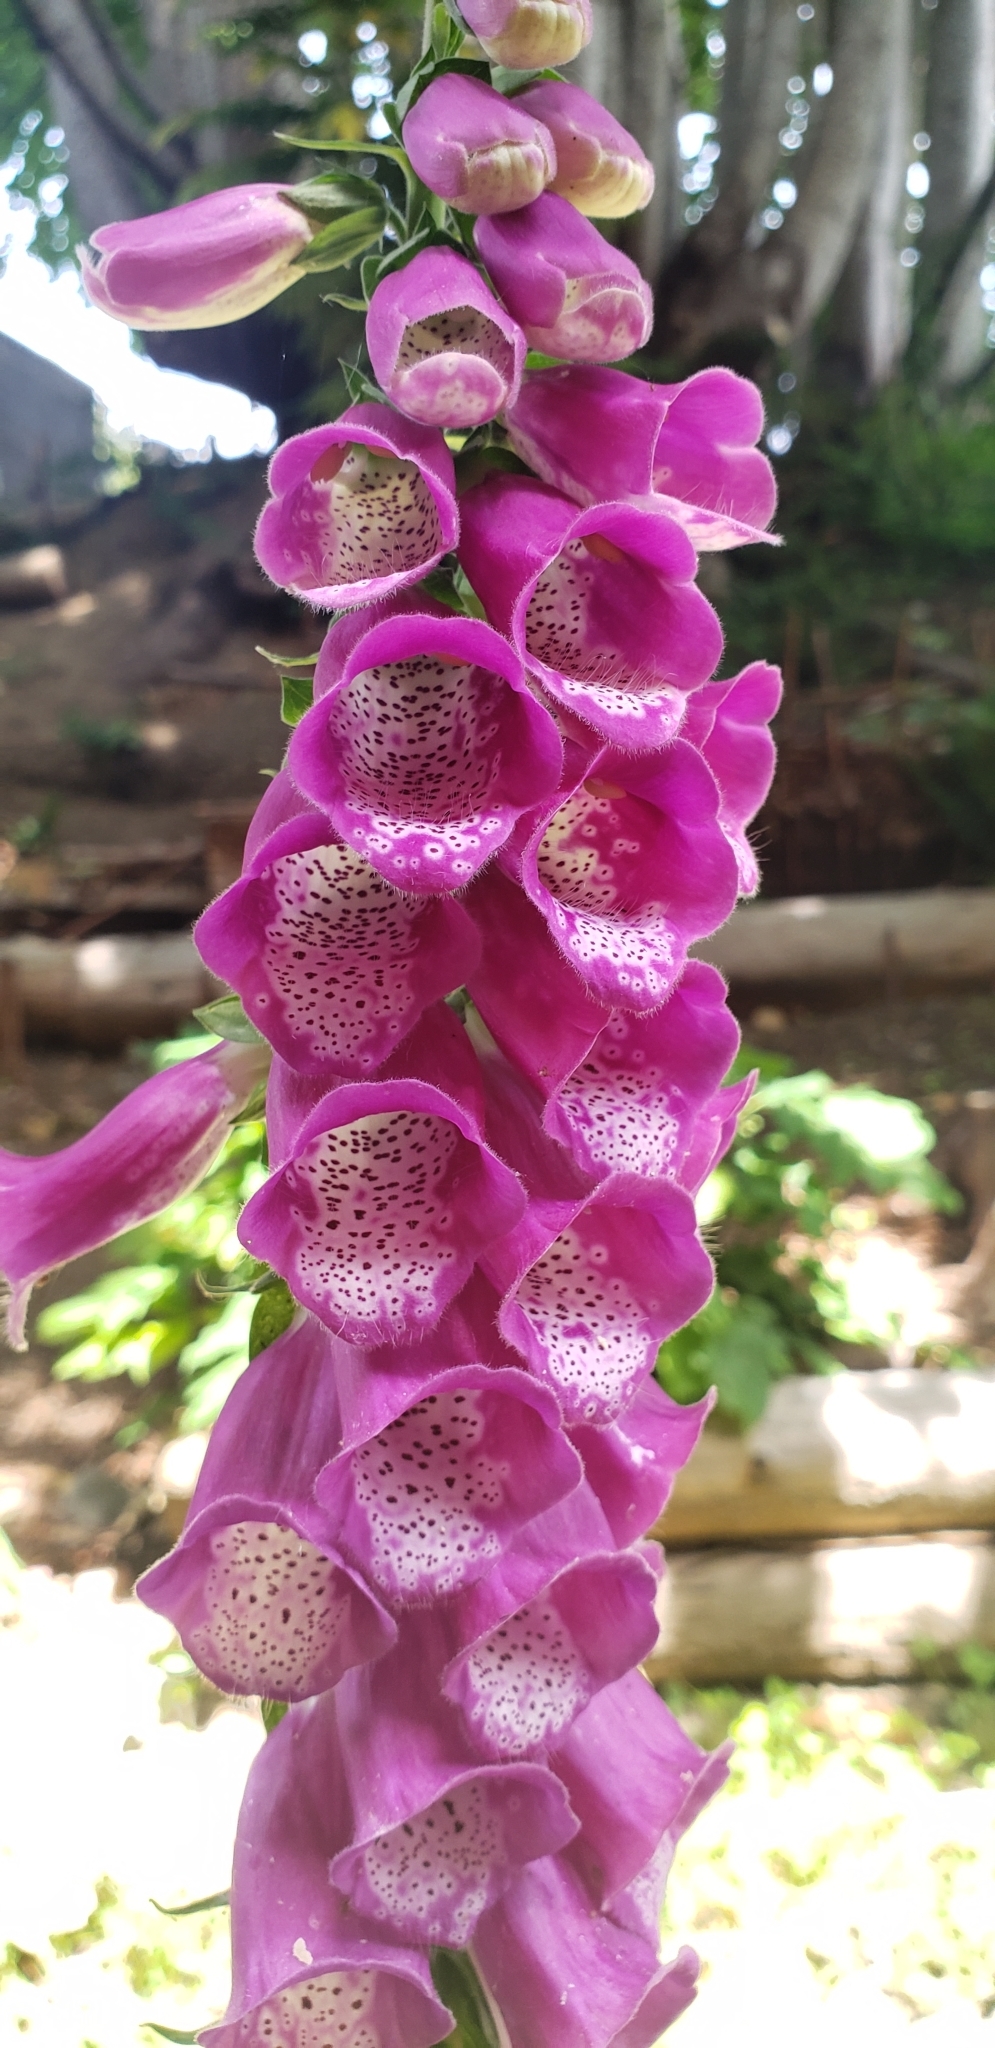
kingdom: Plantae
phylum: Tracheophyta
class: Magnoliopsida
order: Lamiales
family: Plantaginaceae
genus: Digitalis
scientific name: Digitalis purpurea
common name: Foxglove
